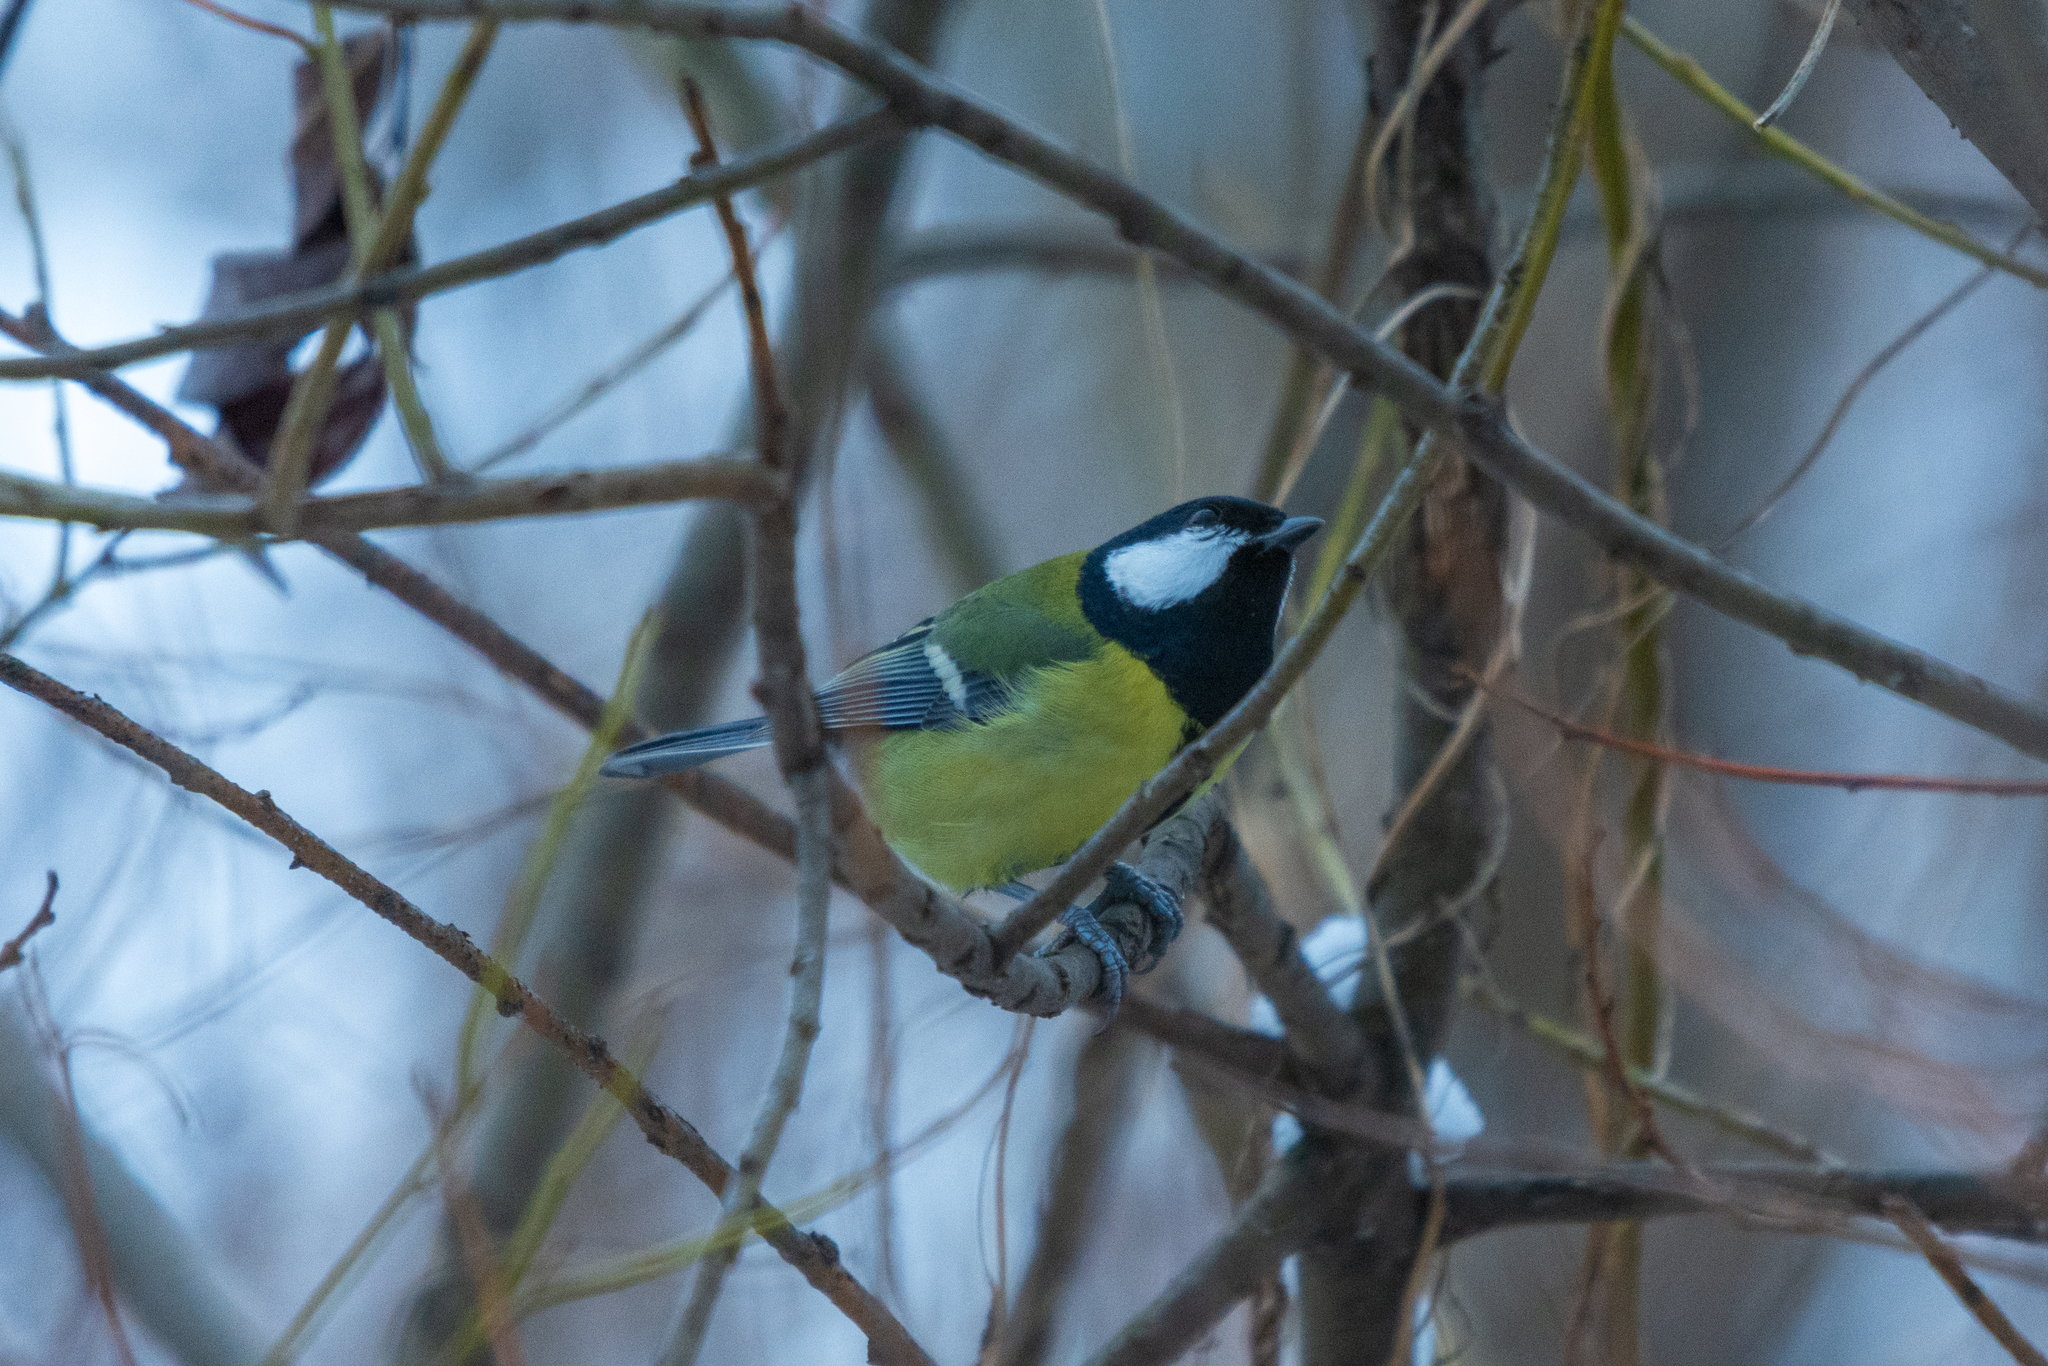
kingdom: Animalia
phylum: Chordata
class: Aves
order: Passeriformes
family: Paridae
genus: Parus
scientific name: Parus major
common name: Great tit
